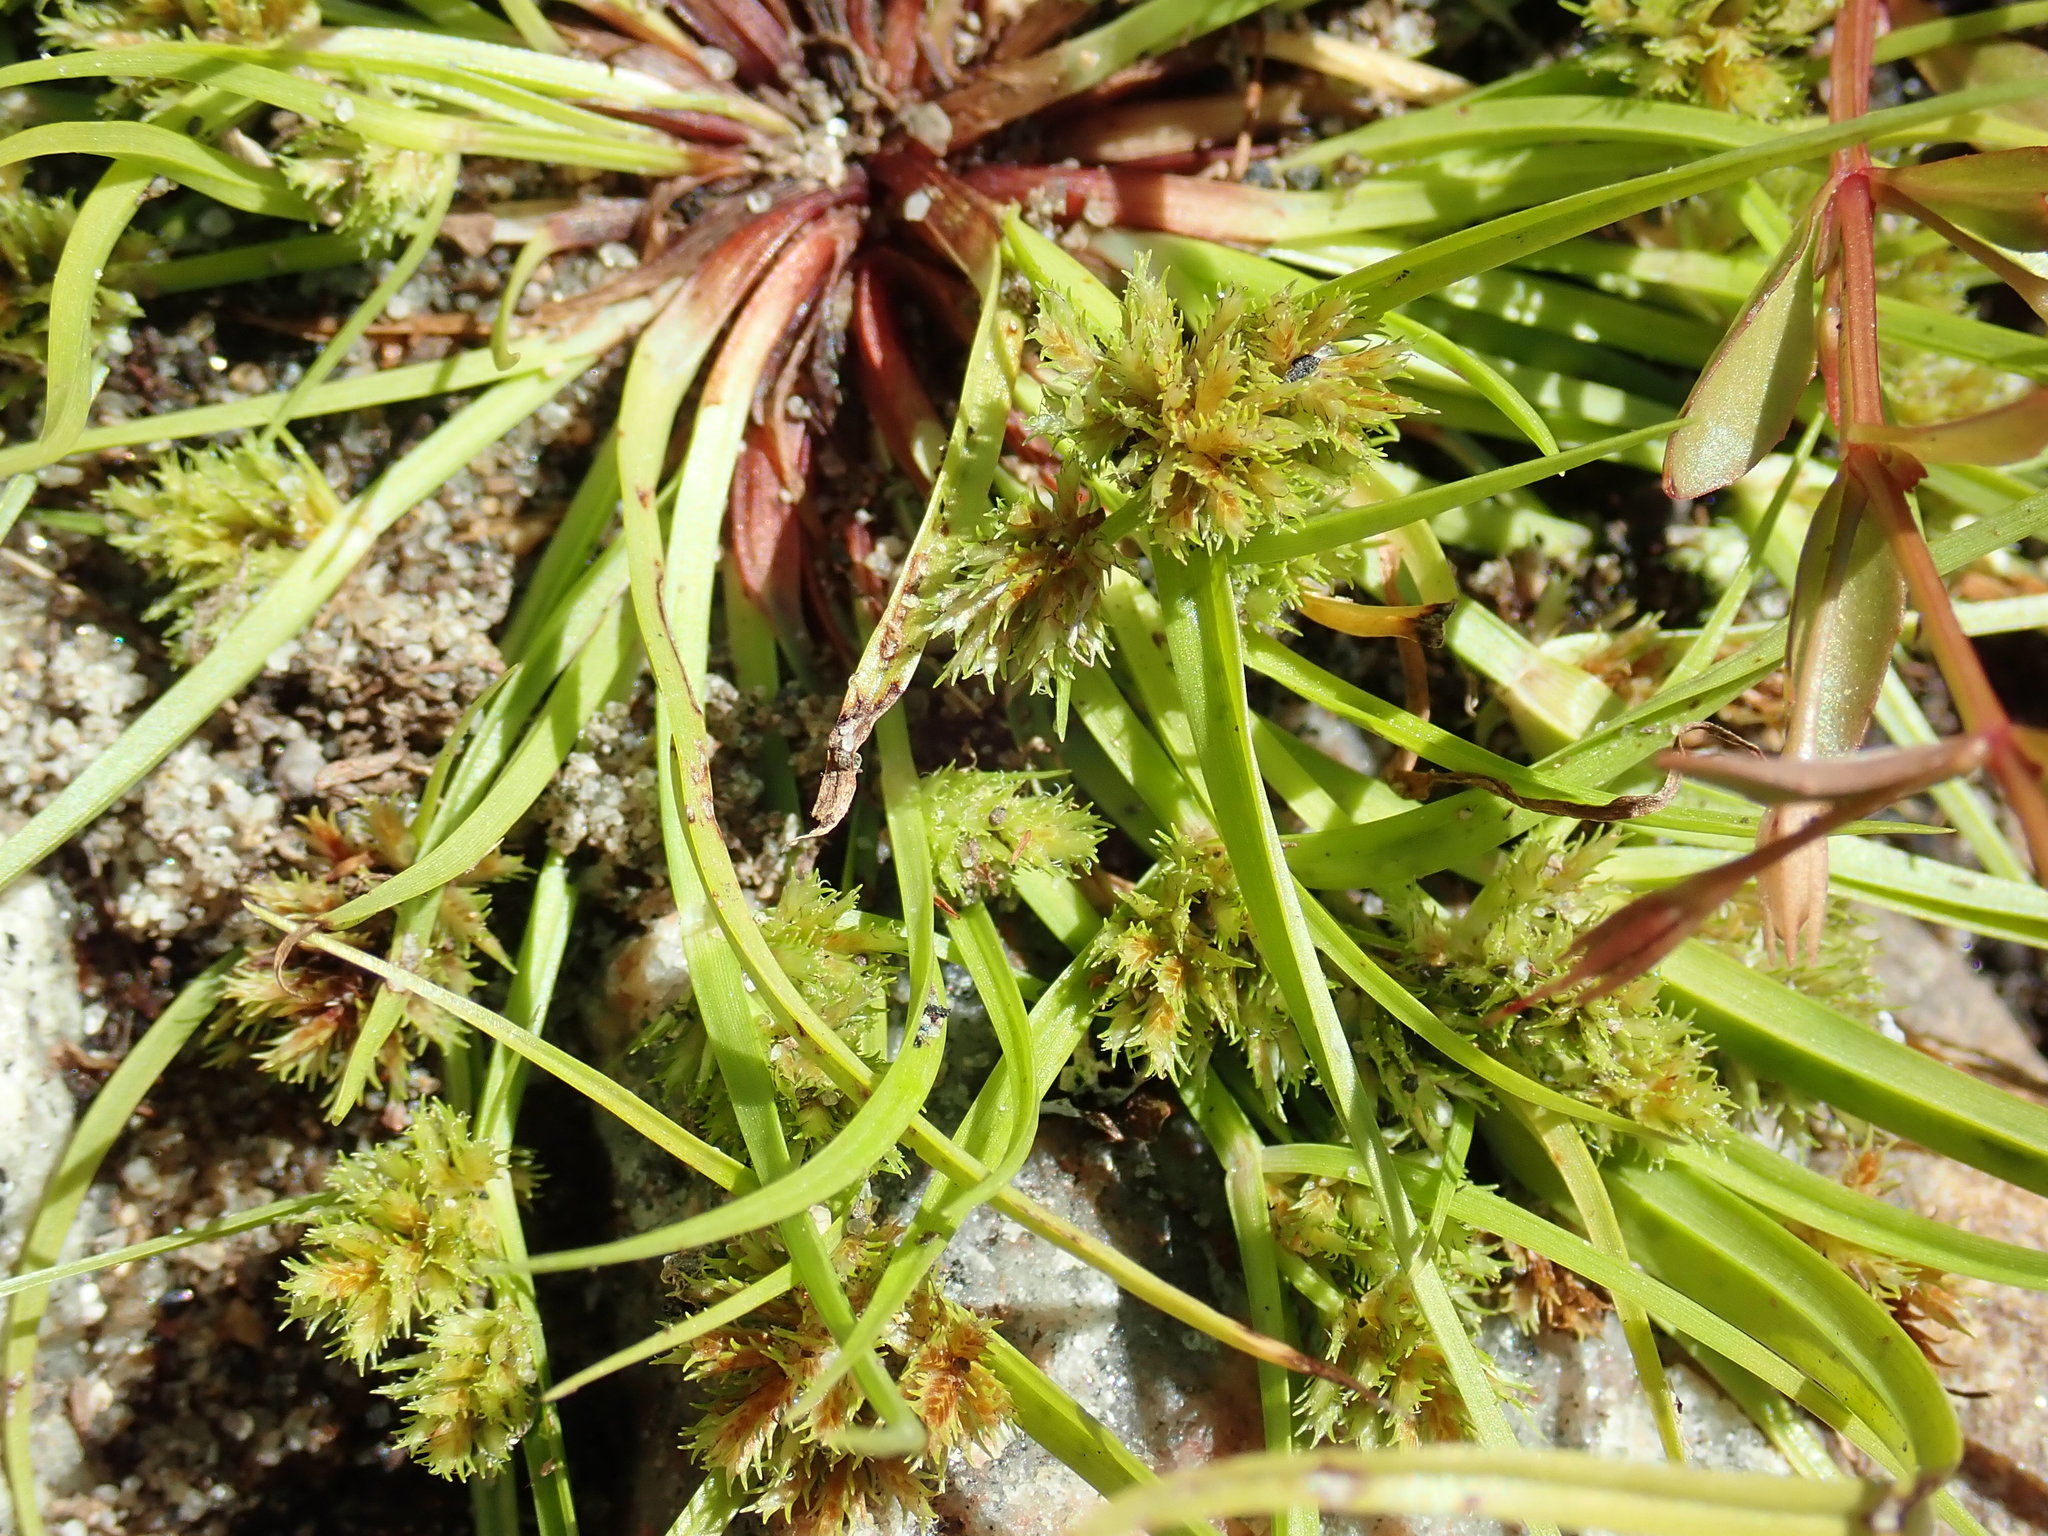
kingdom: Plantae
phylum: Tracheophyta
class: Liliopsida
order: Poales
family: Cyperaceae
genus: Cyperus
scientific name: Cyperus squarrosus
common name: Awned cyperus
